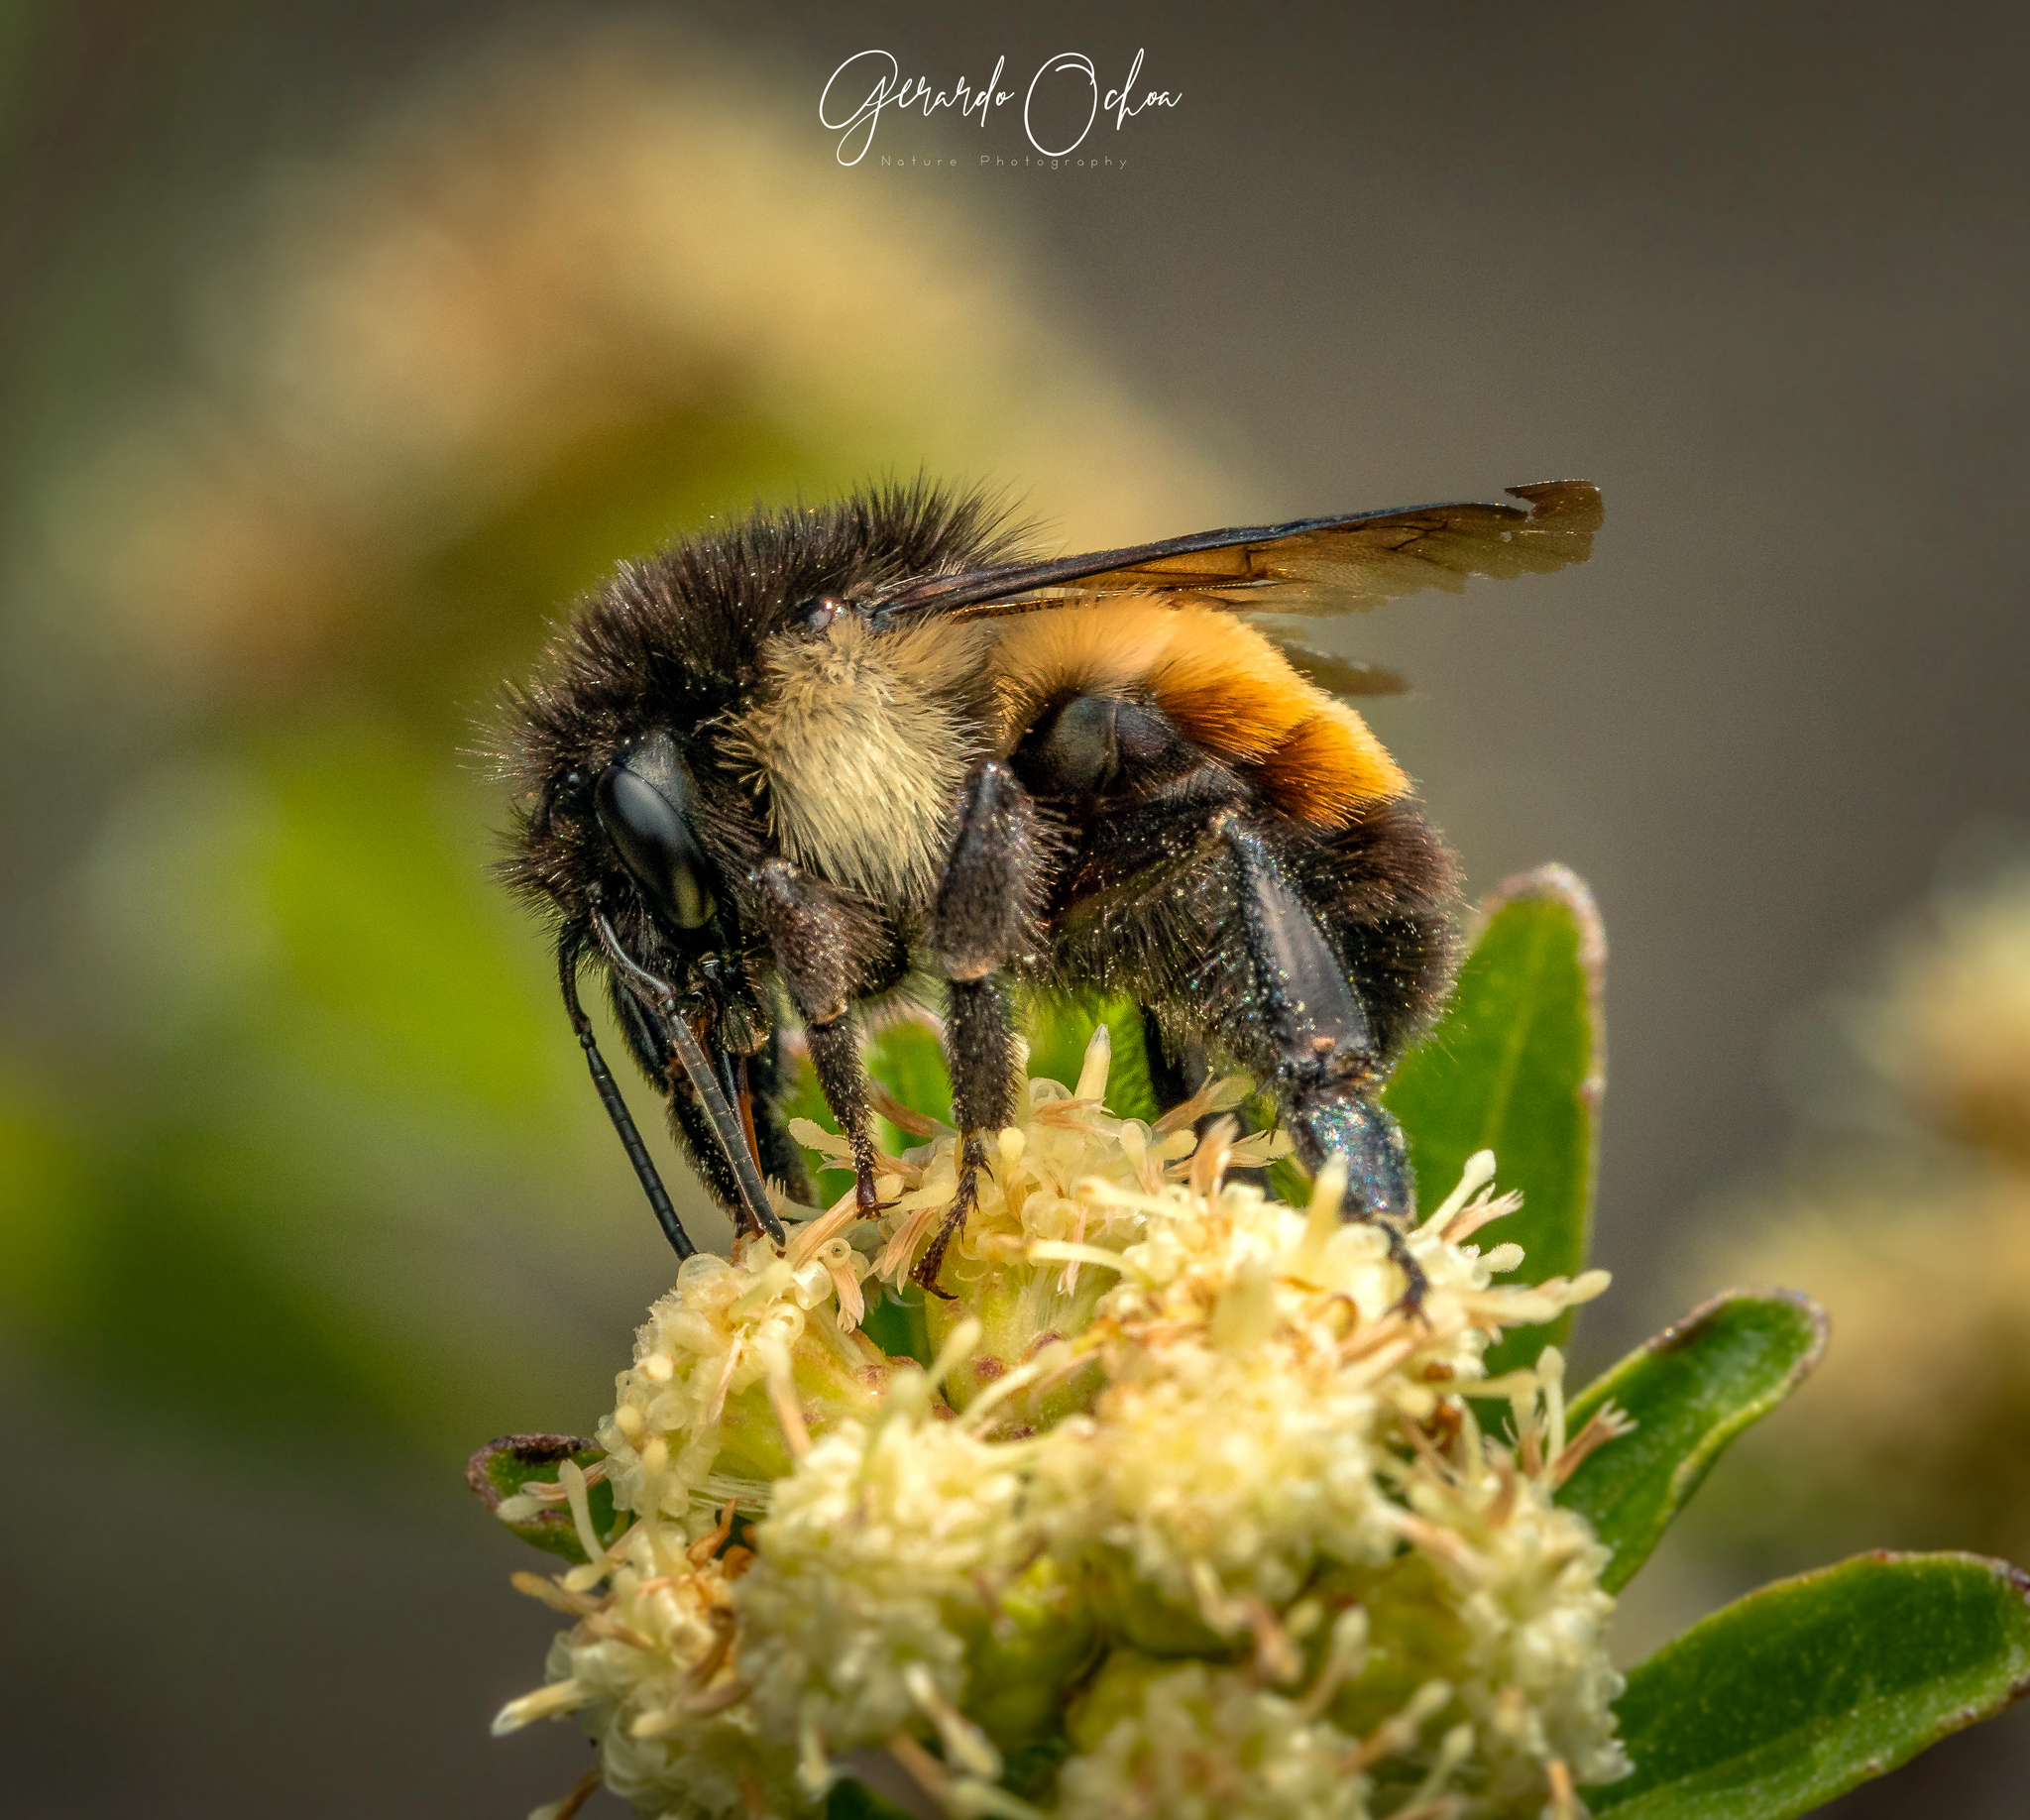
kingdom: Animalia
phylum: Arthropoda
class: Insecta
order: Hymenoptera
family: Apidae
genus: Bombus
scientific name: Bombus ephippiatus
